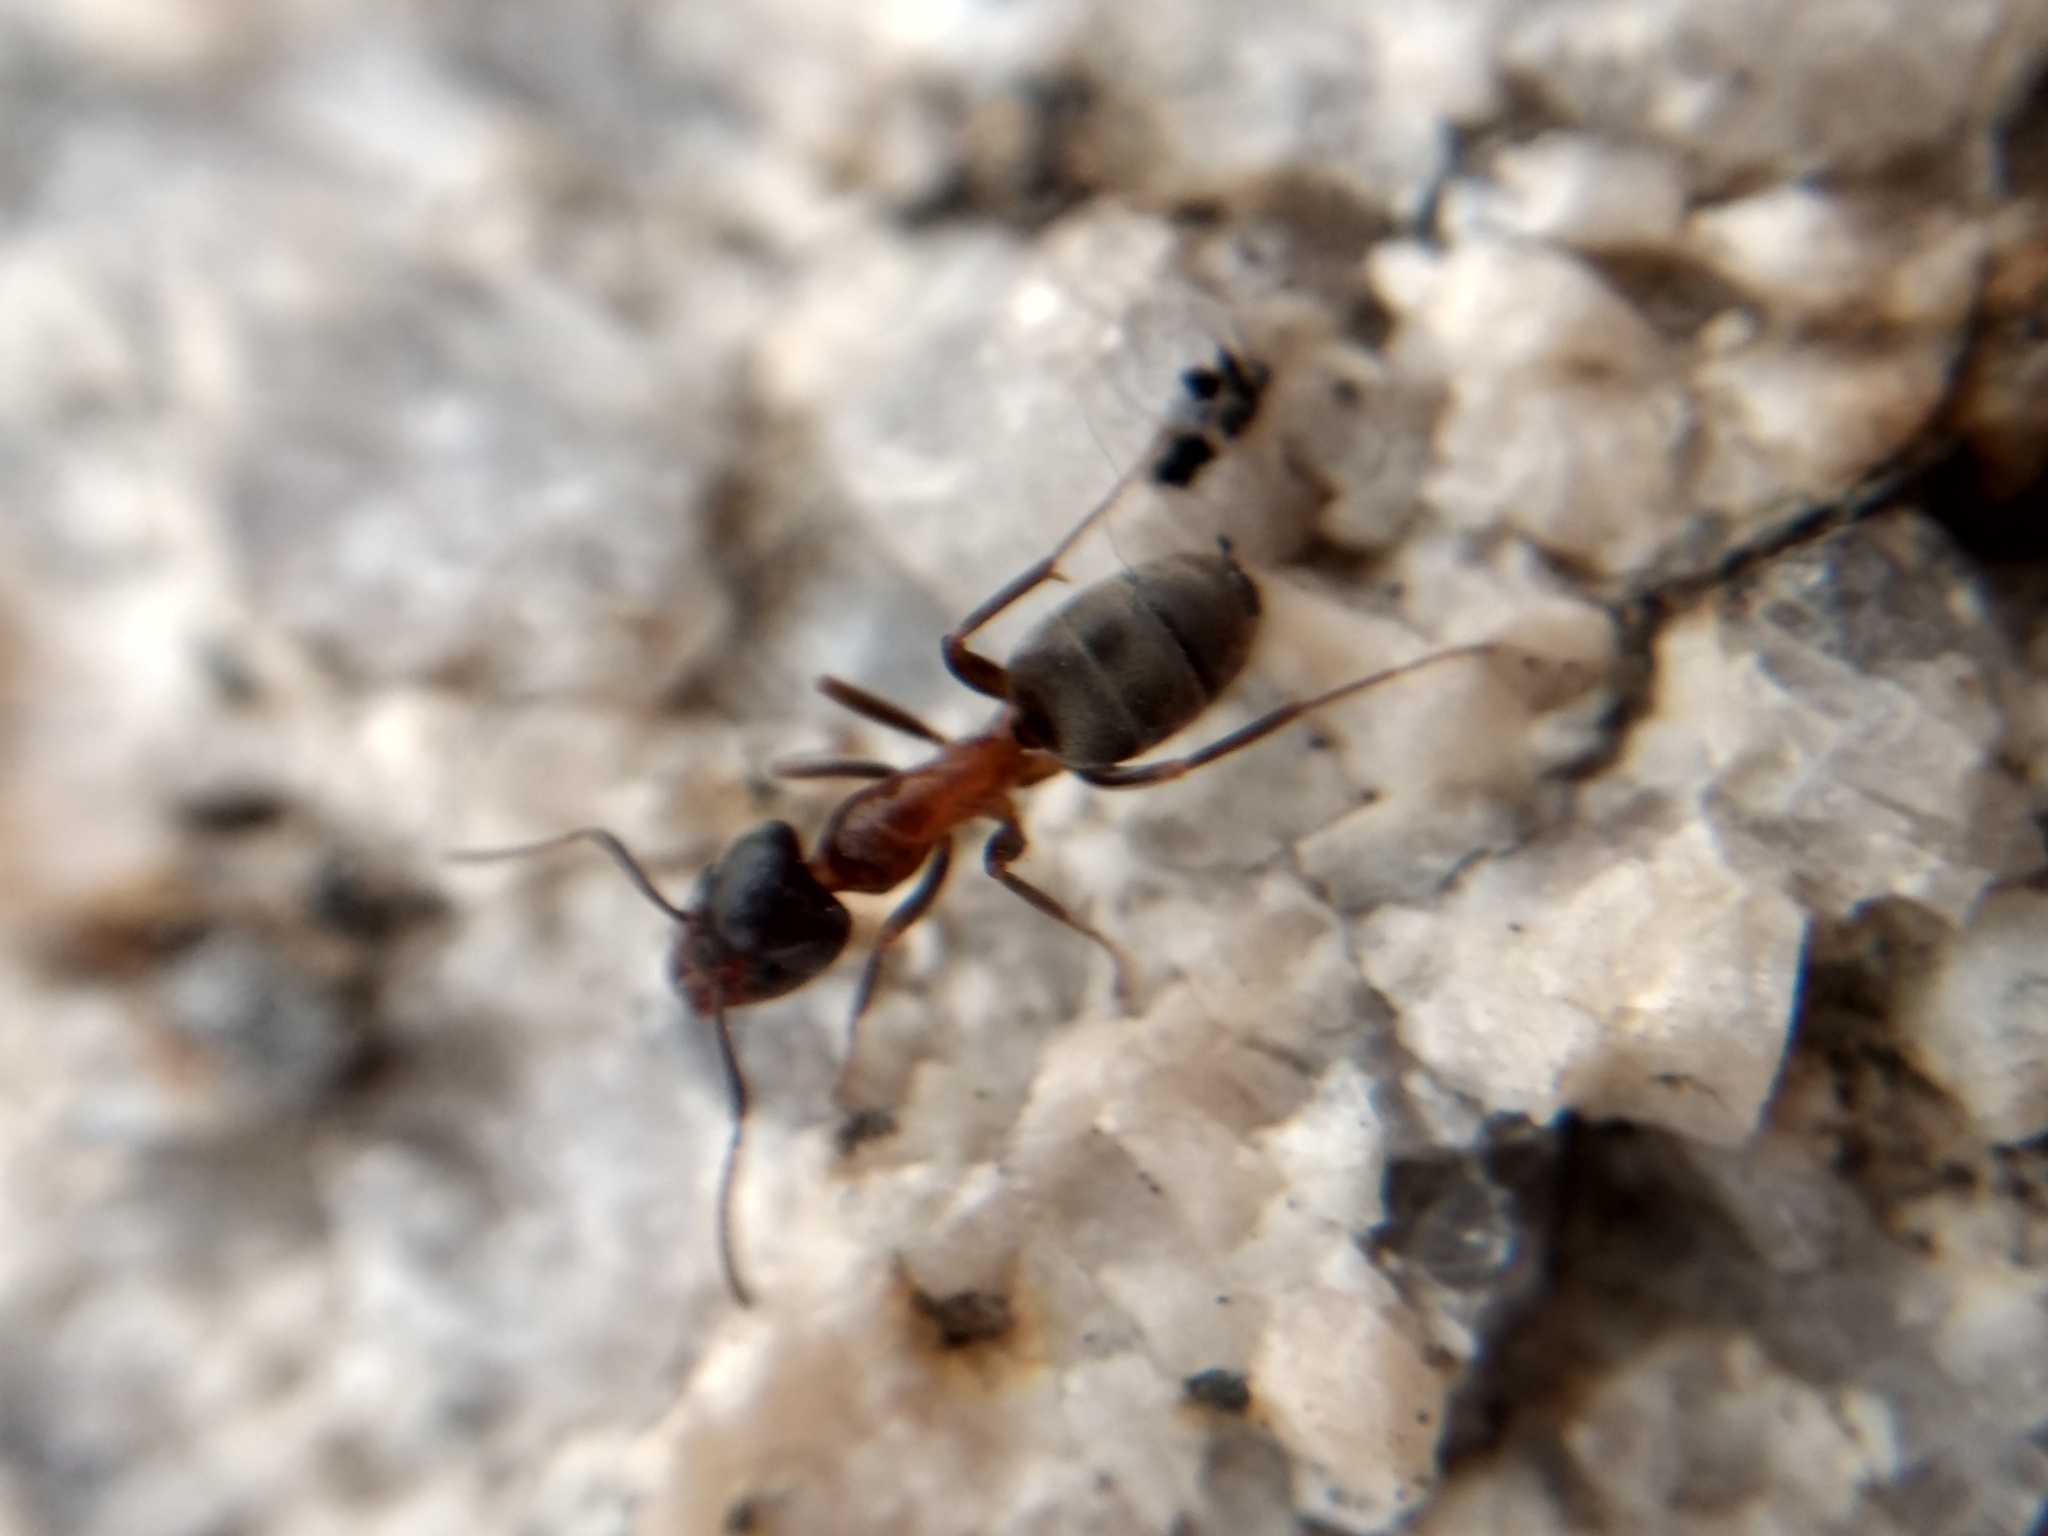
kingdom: Animalia
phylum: Arthropoda
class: Insecta
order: Hymenoptera
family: Formicidae
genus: Liometopum
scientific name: Liometopum occidentale
